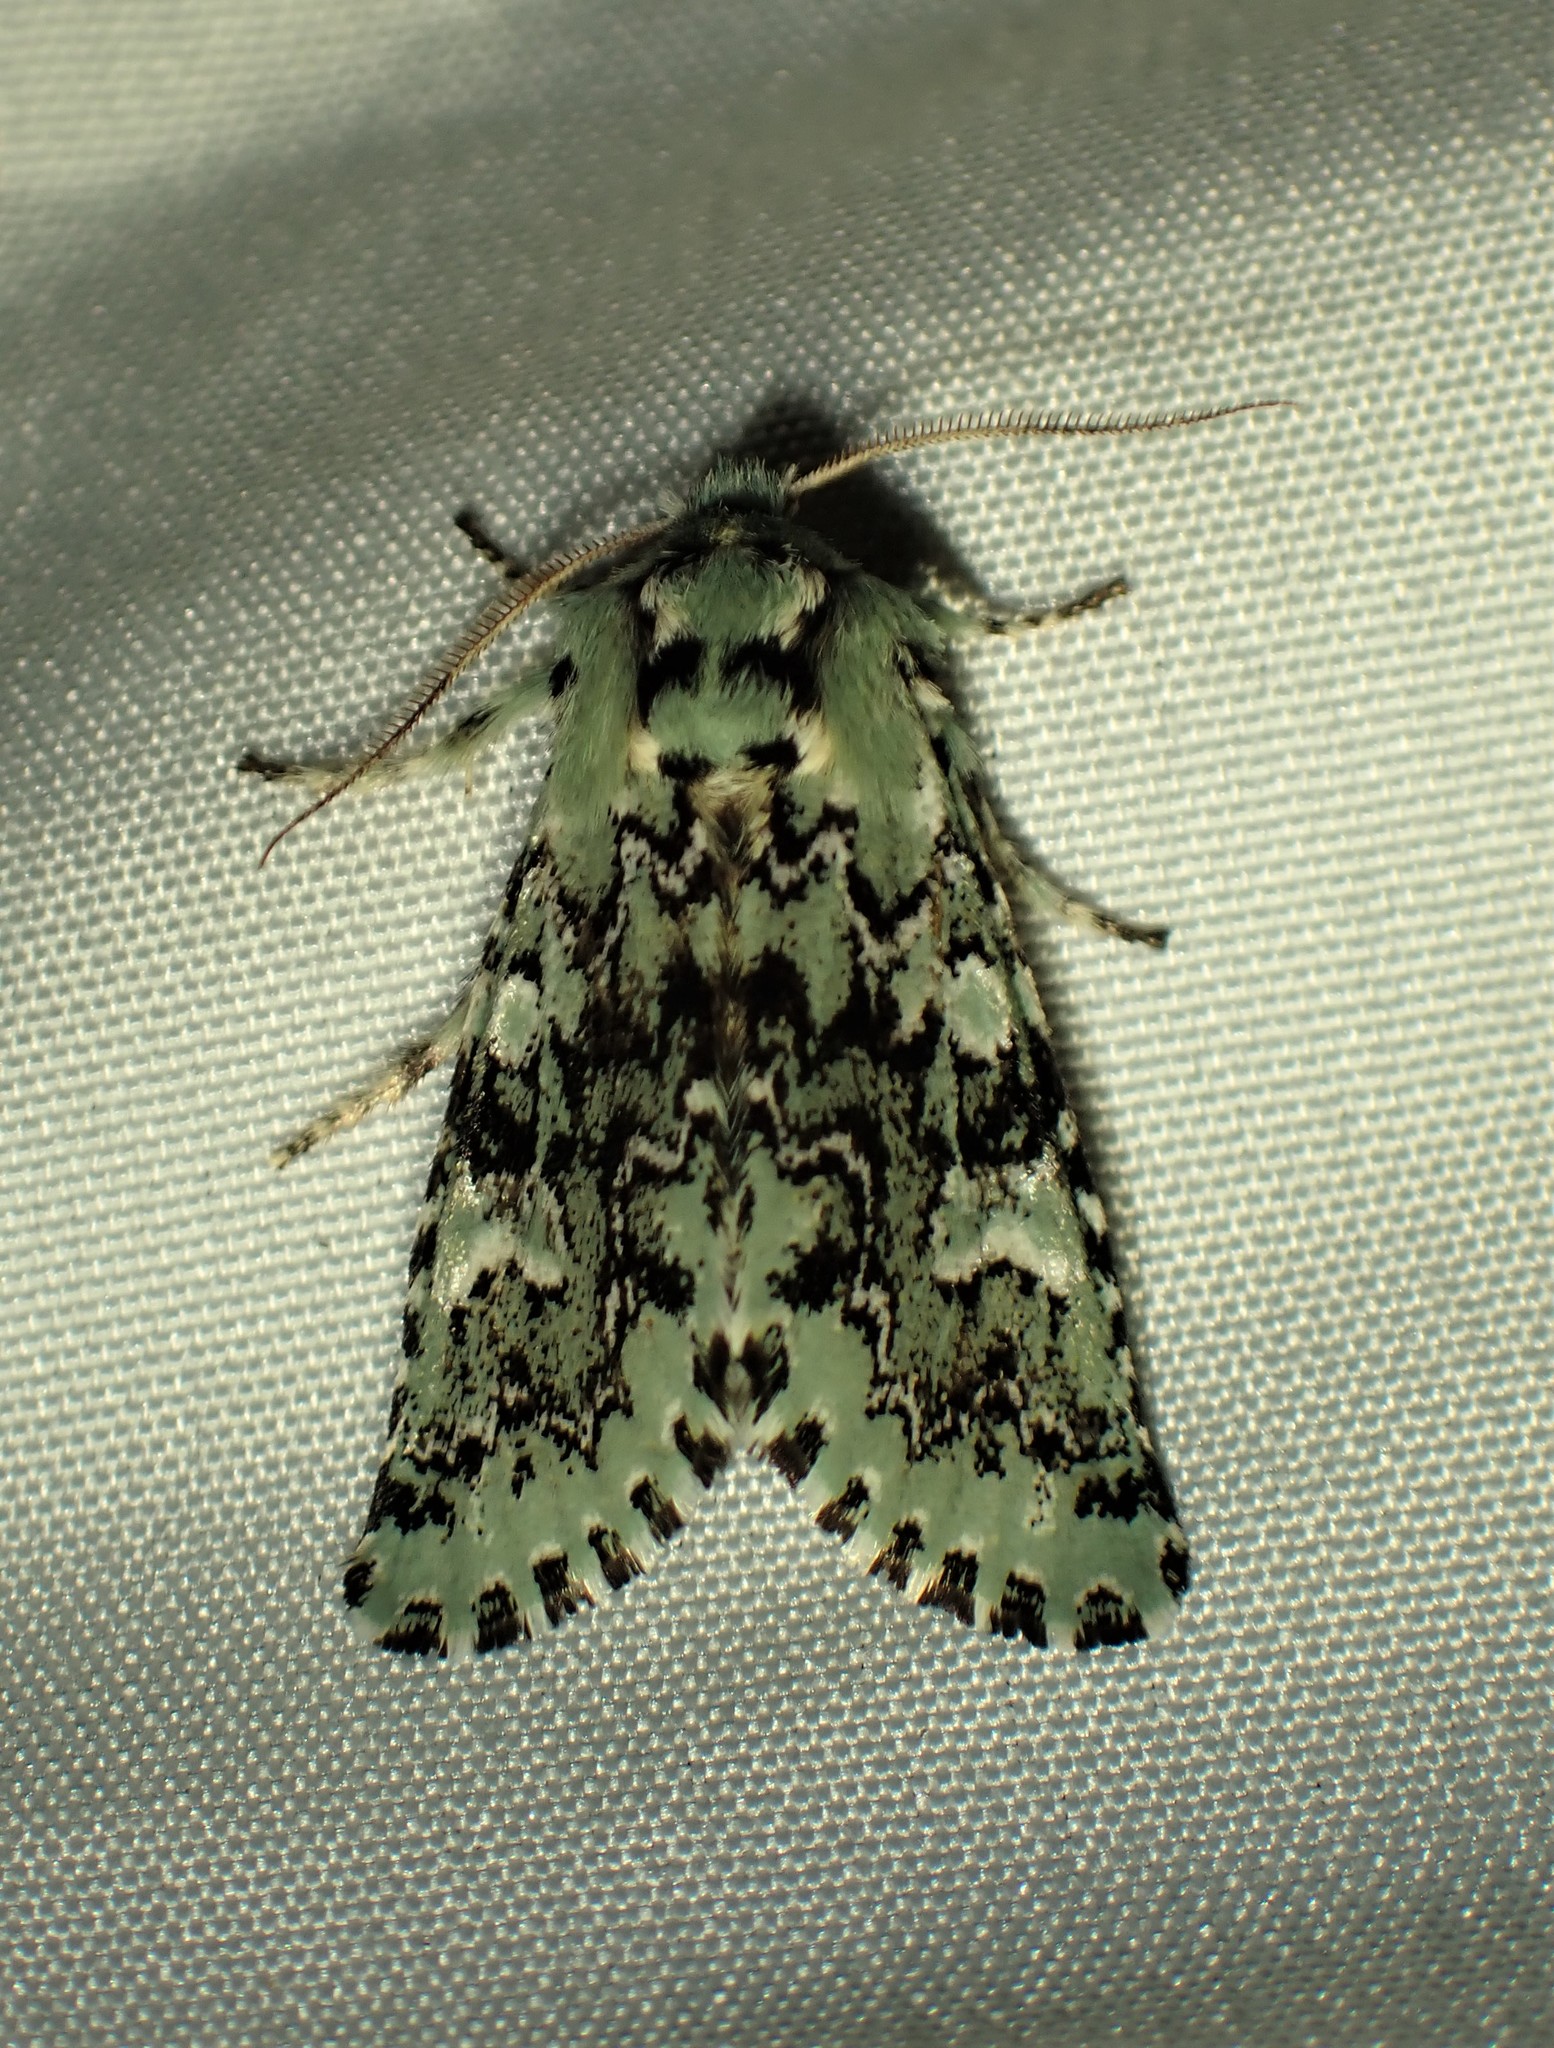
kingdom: Animalia
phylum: Arthropoda
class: Insecta
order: Lepidoptera
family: Noctuidae
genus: Feralia
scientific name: Feralia jocosa
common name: Joker
